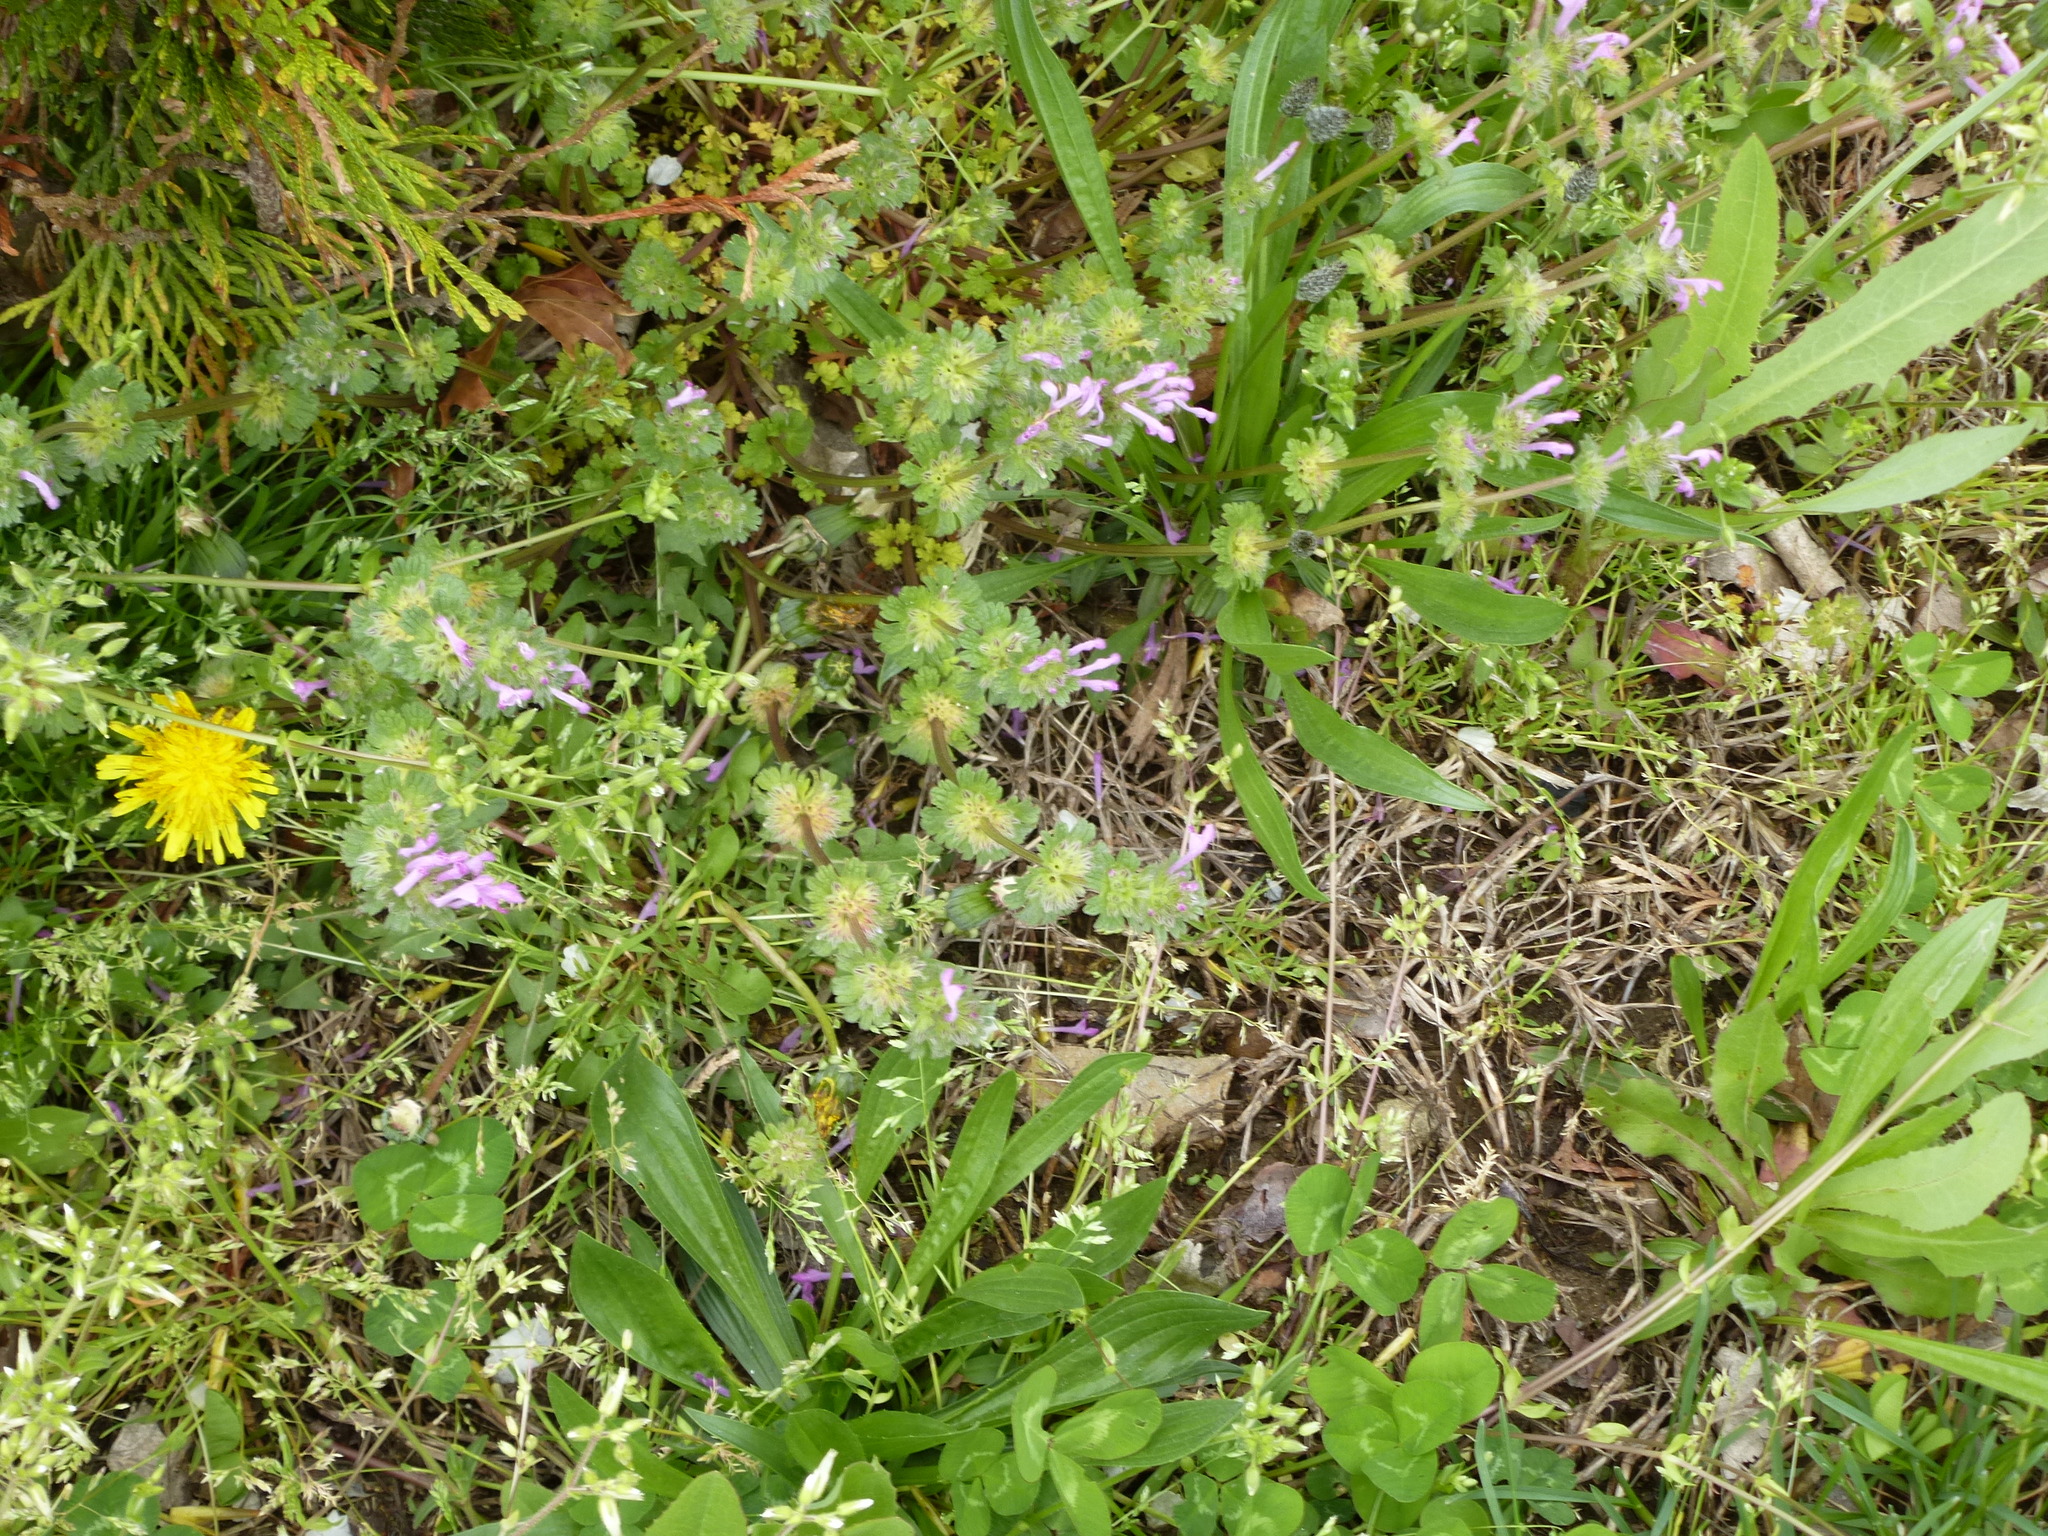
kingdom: Plantae
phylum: Tracheophyta
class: Magnoliopsida
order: Lamiales
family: Lamiaceae
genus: Lamium
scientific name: Lamium amplexicaule
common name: Henbit dead-nettle
